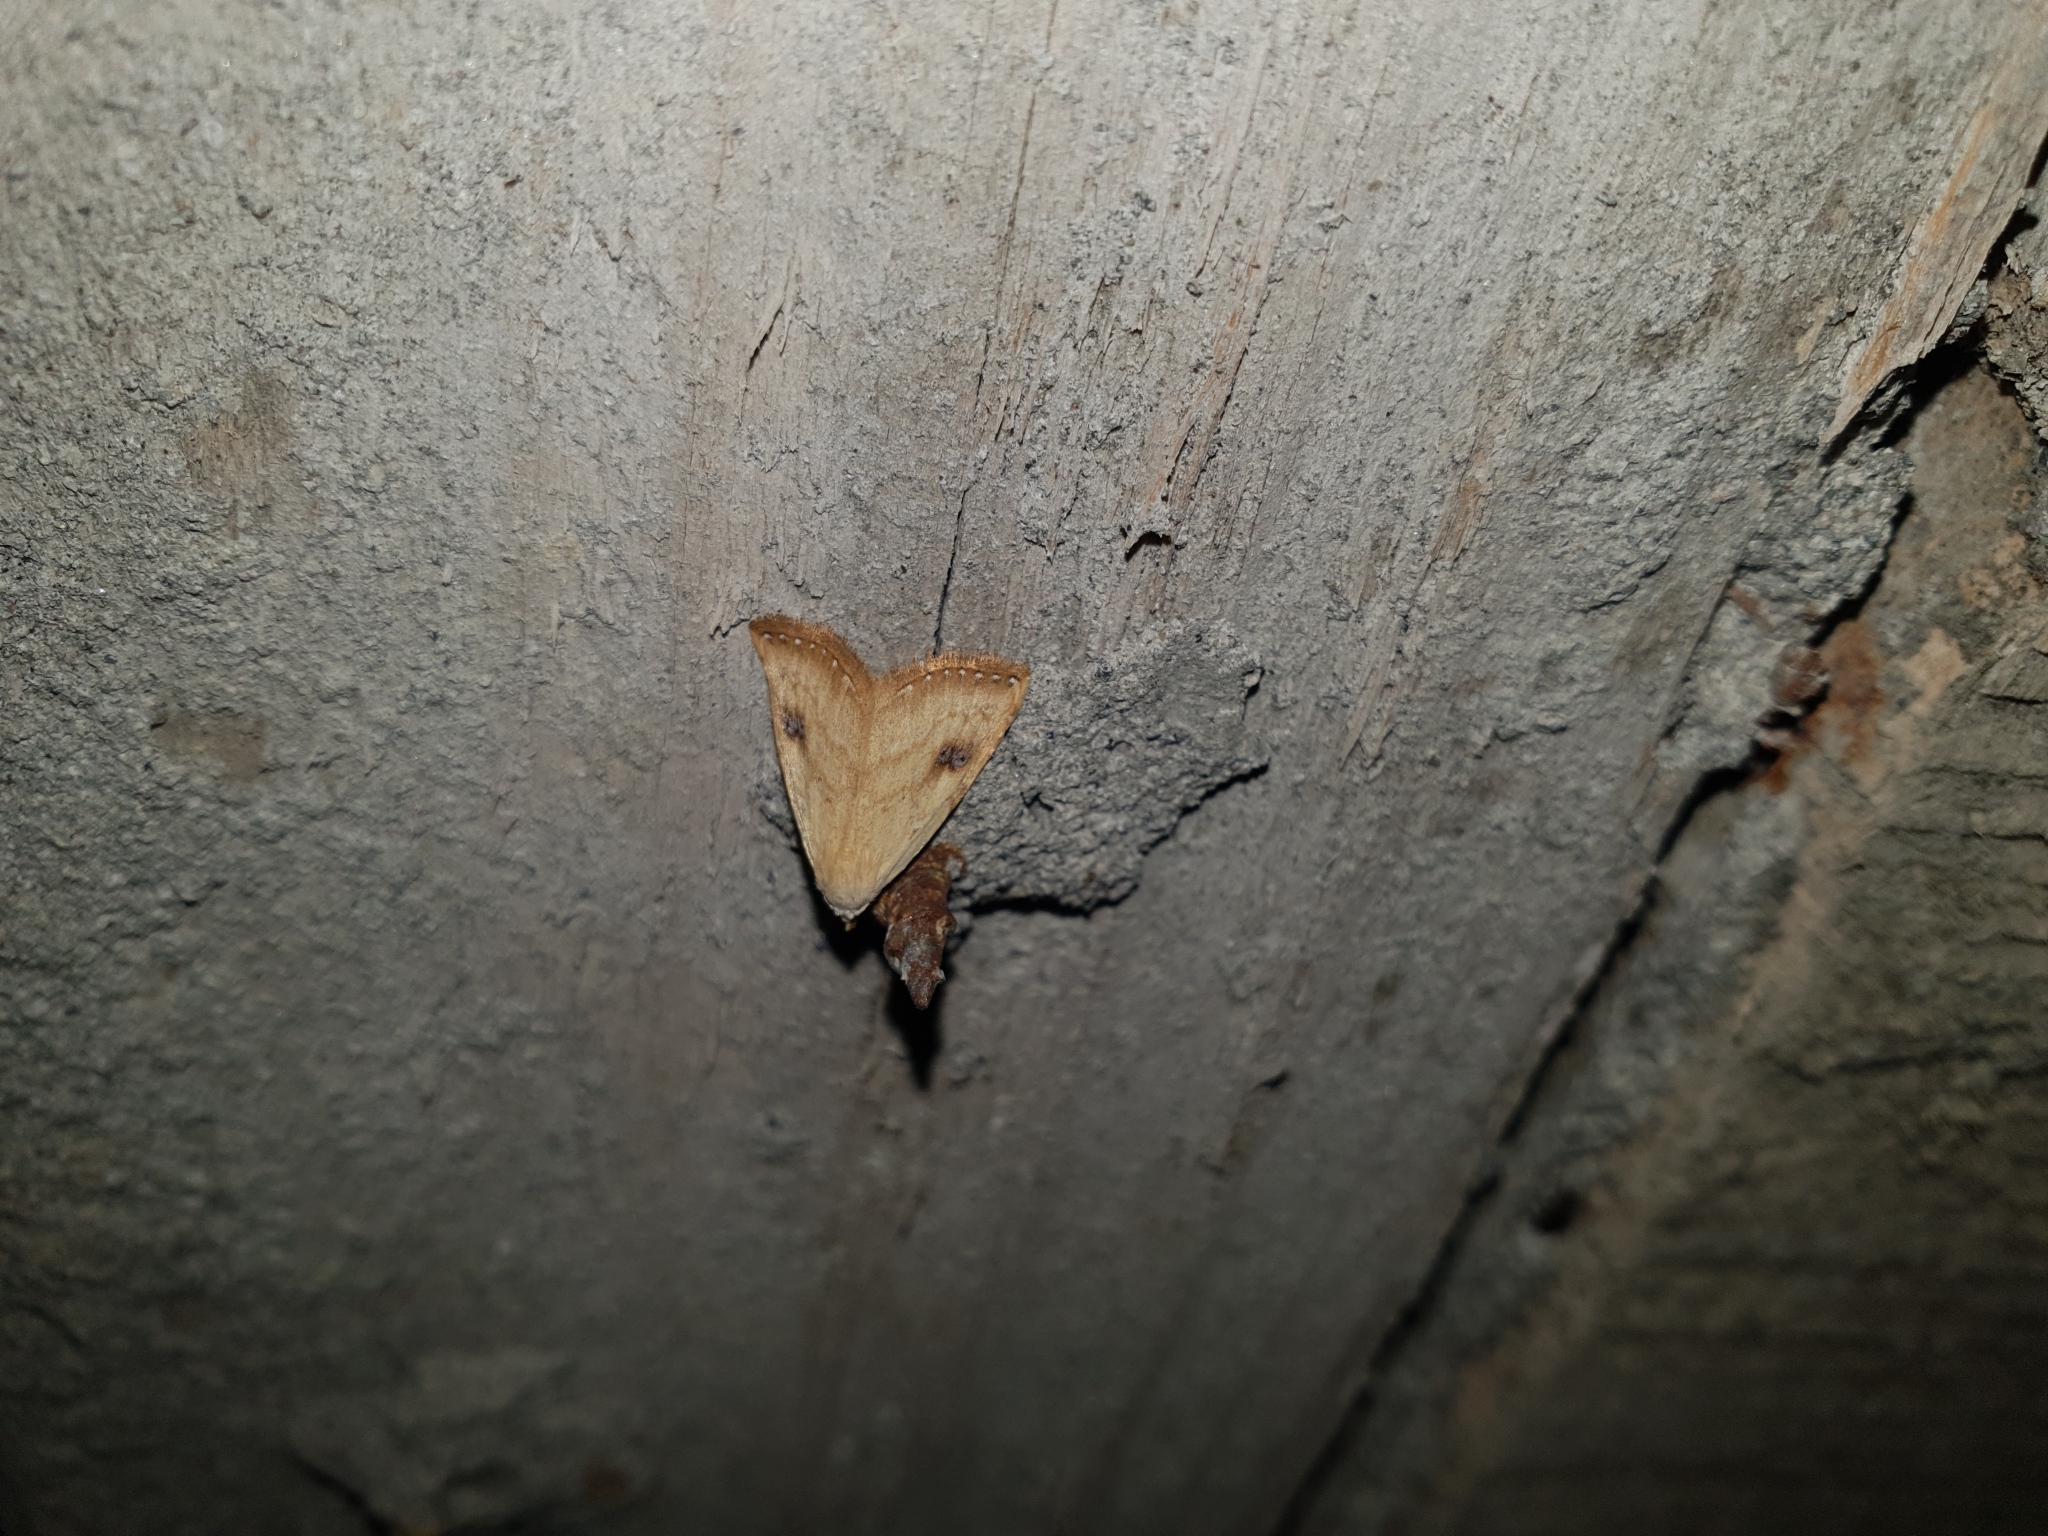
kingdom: Animalia
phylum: Arthropoda
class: Insecta
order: Lepidoptera
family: Erebidae
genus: Rivula
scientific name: Rivula sericealis
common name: Straw dot
